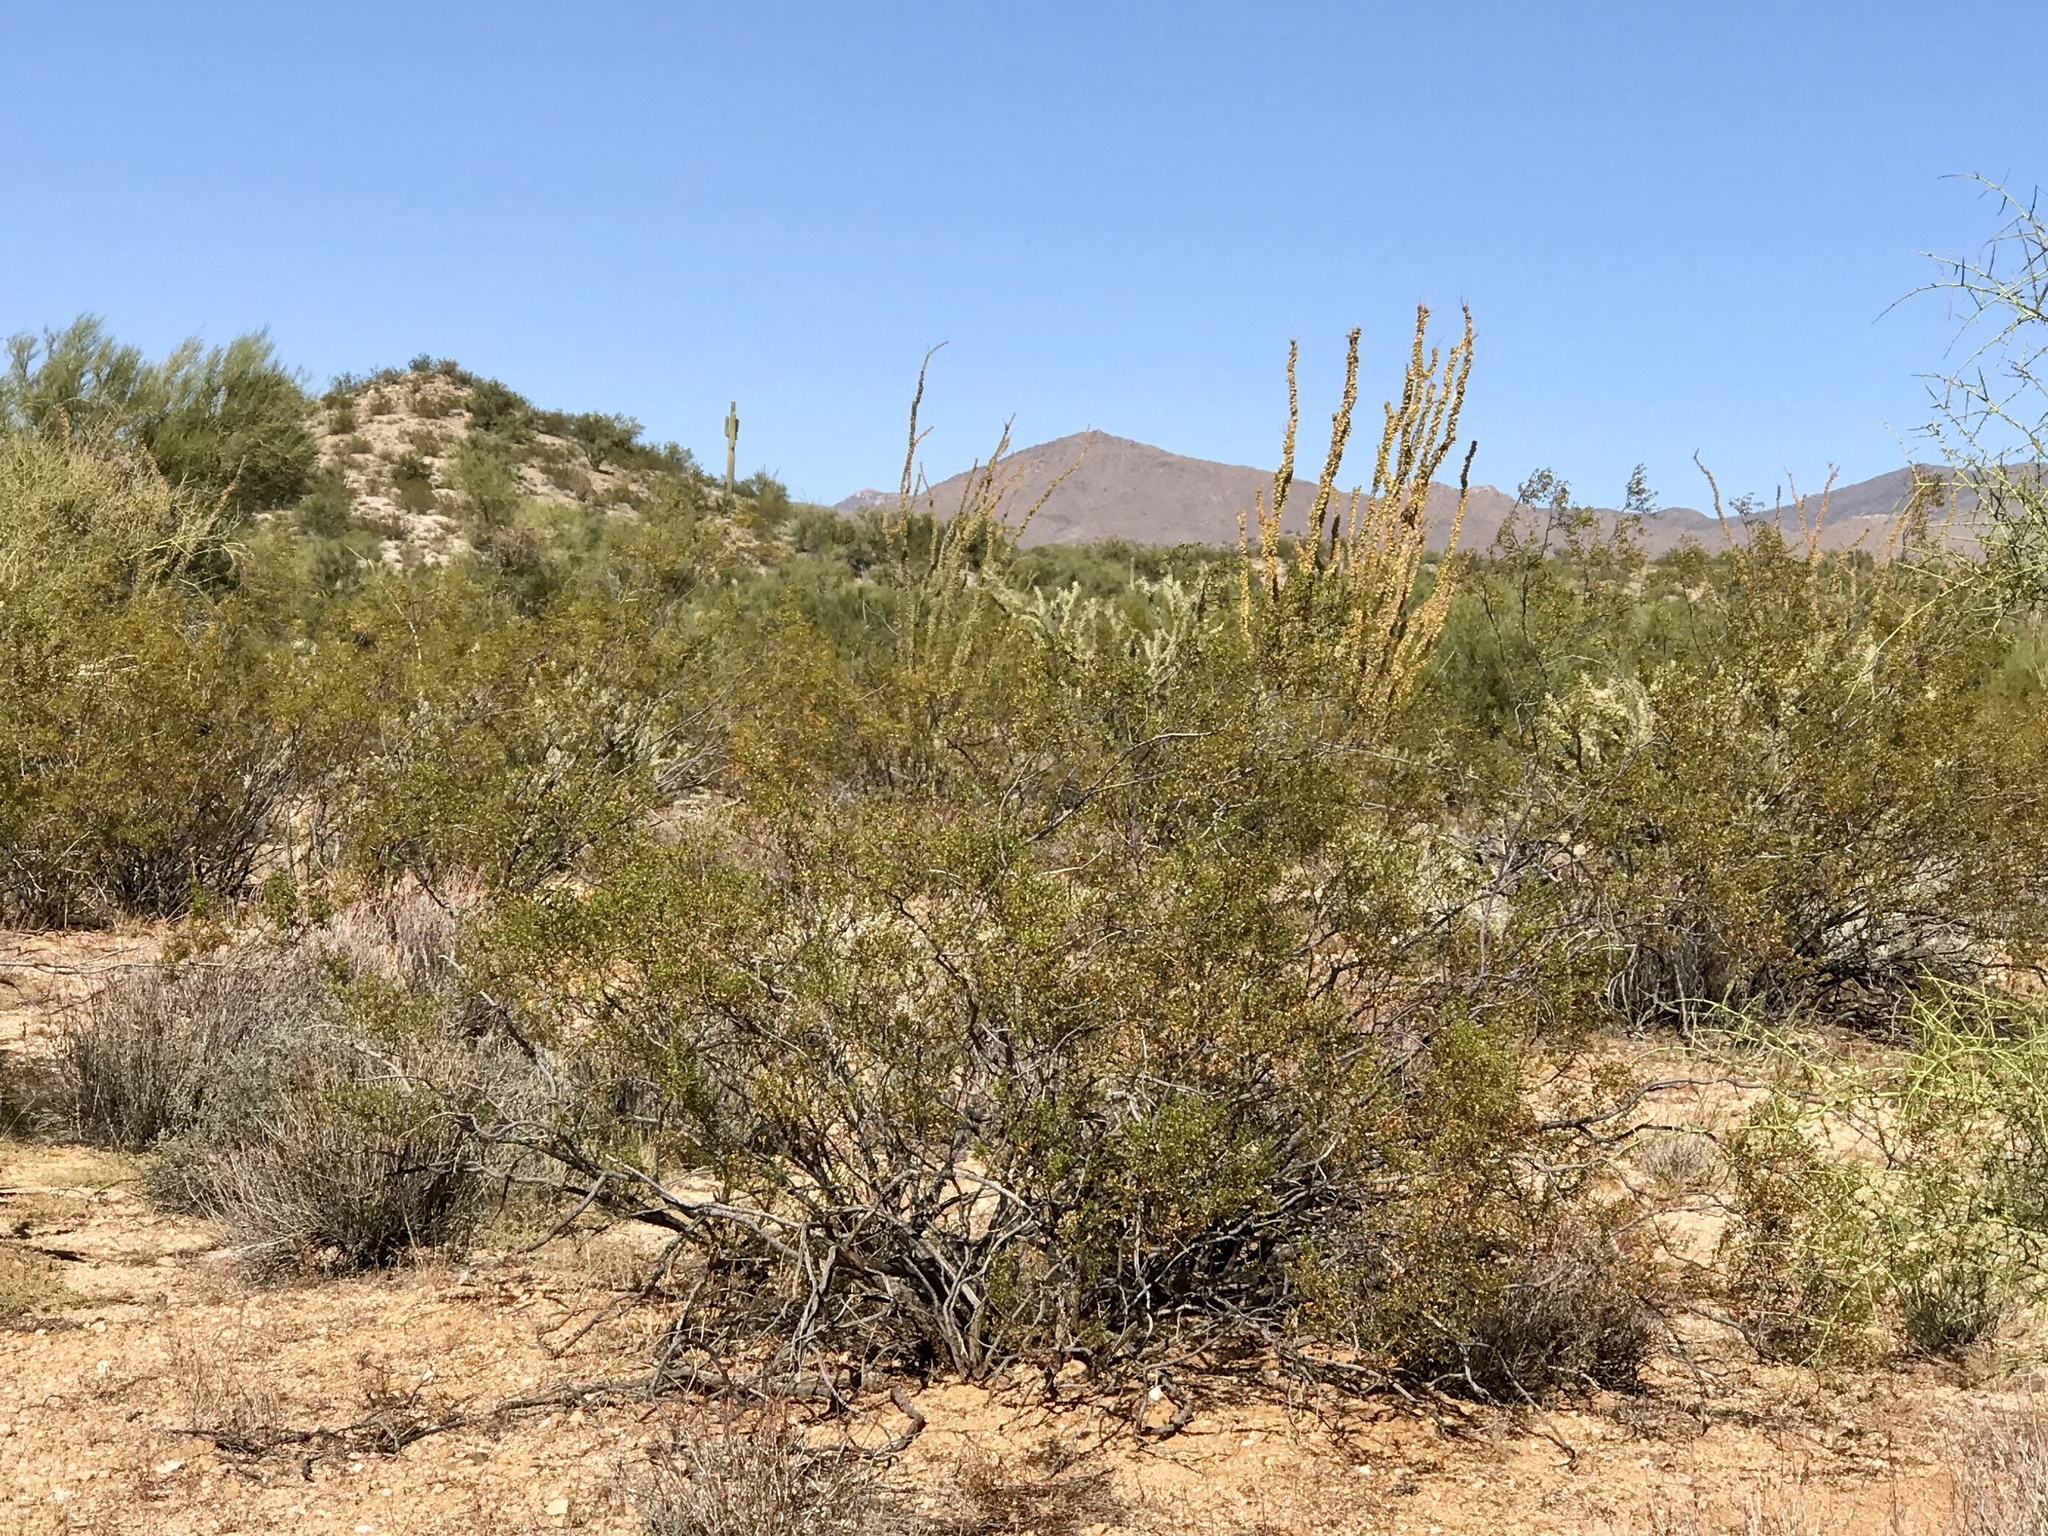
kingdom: Plantae
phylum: Tracheophyta
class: Magnoliopsida
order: Zygophyllales
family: Zygophyllaceae
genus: Larrea
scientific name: Larrea tridentata
